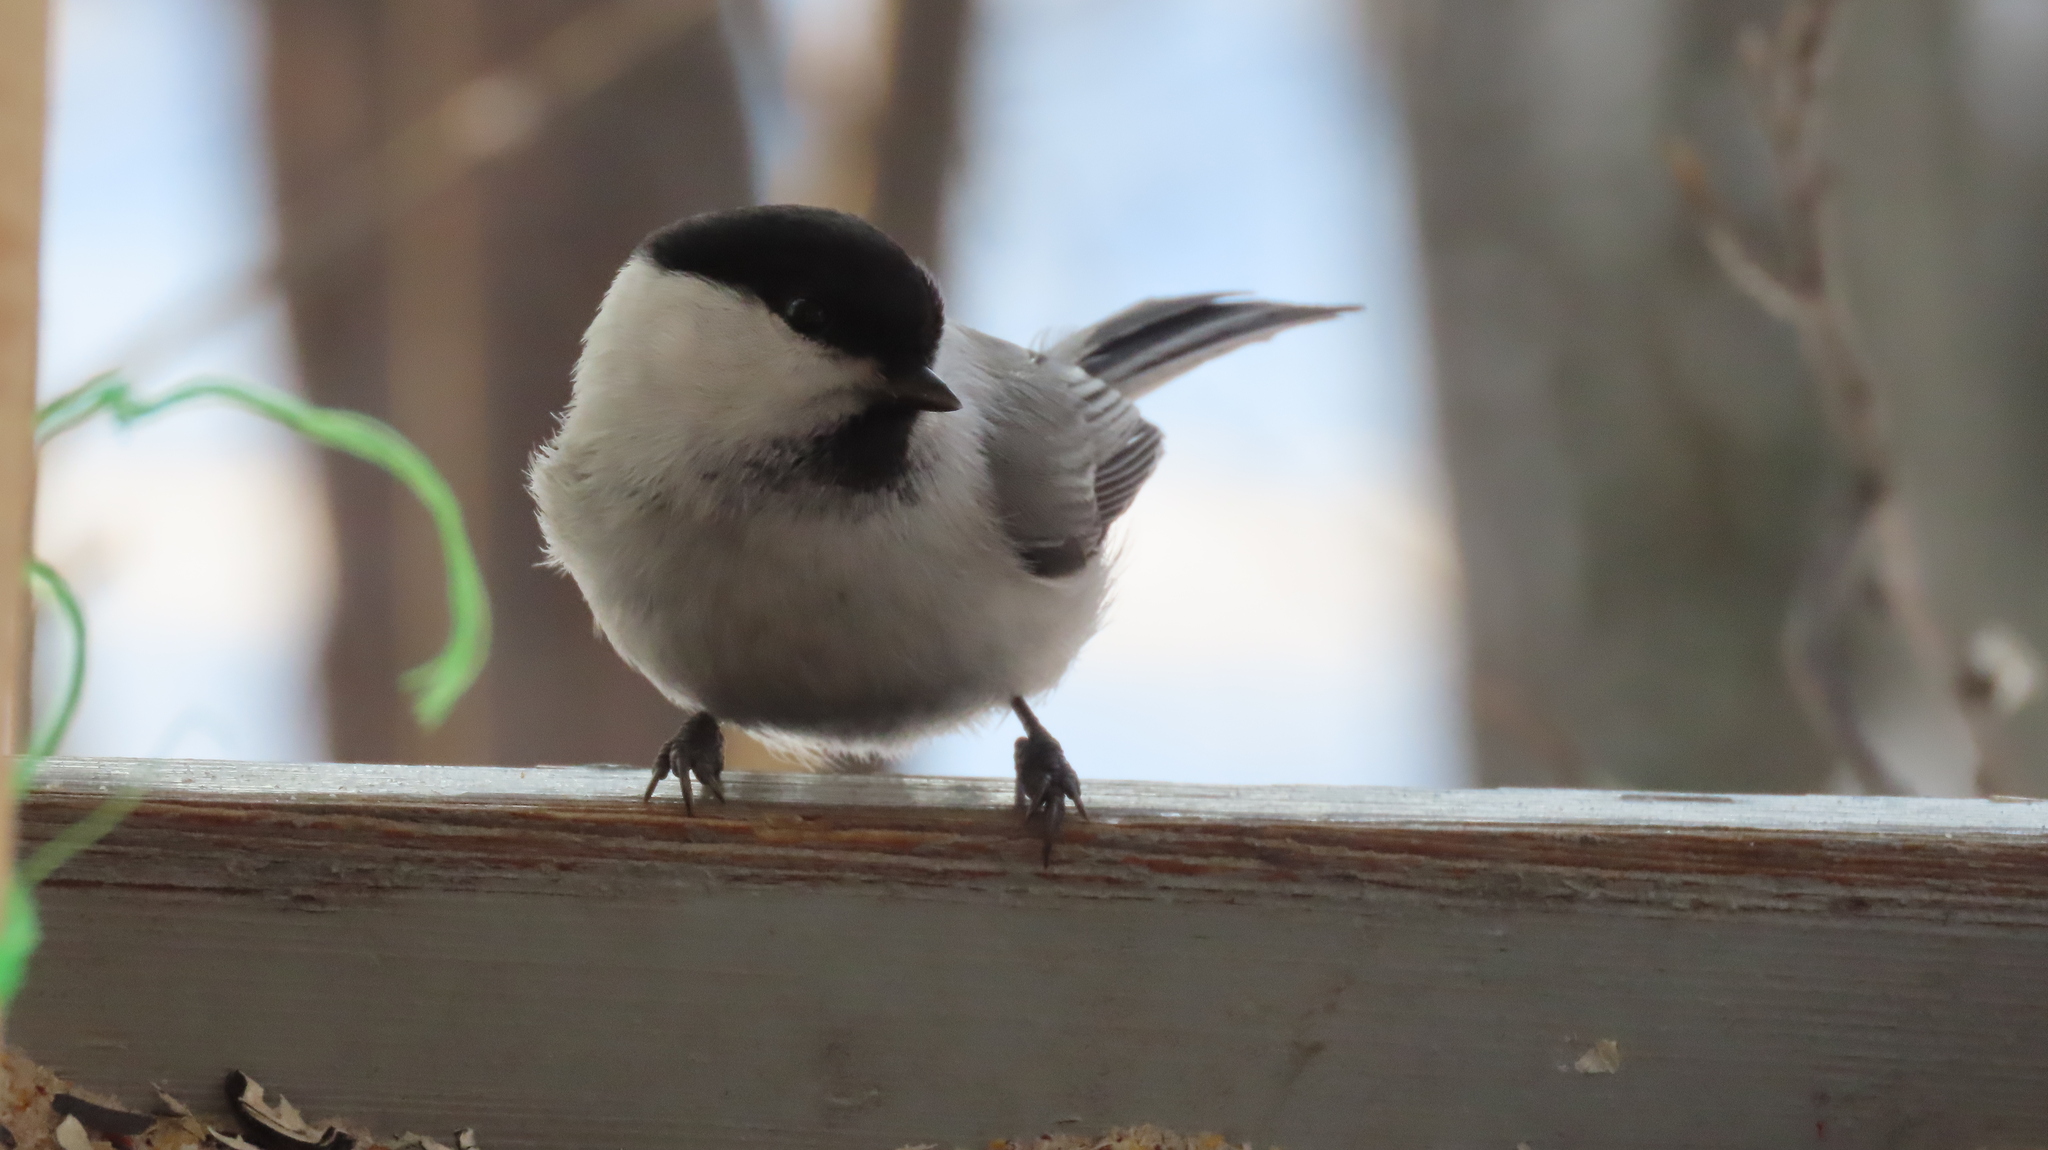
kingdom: Animalia
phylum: Chordata
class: Aves
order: Passeriformes
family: Paridae
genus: Poecile
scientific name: Poecile montanus
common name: Willow tit
